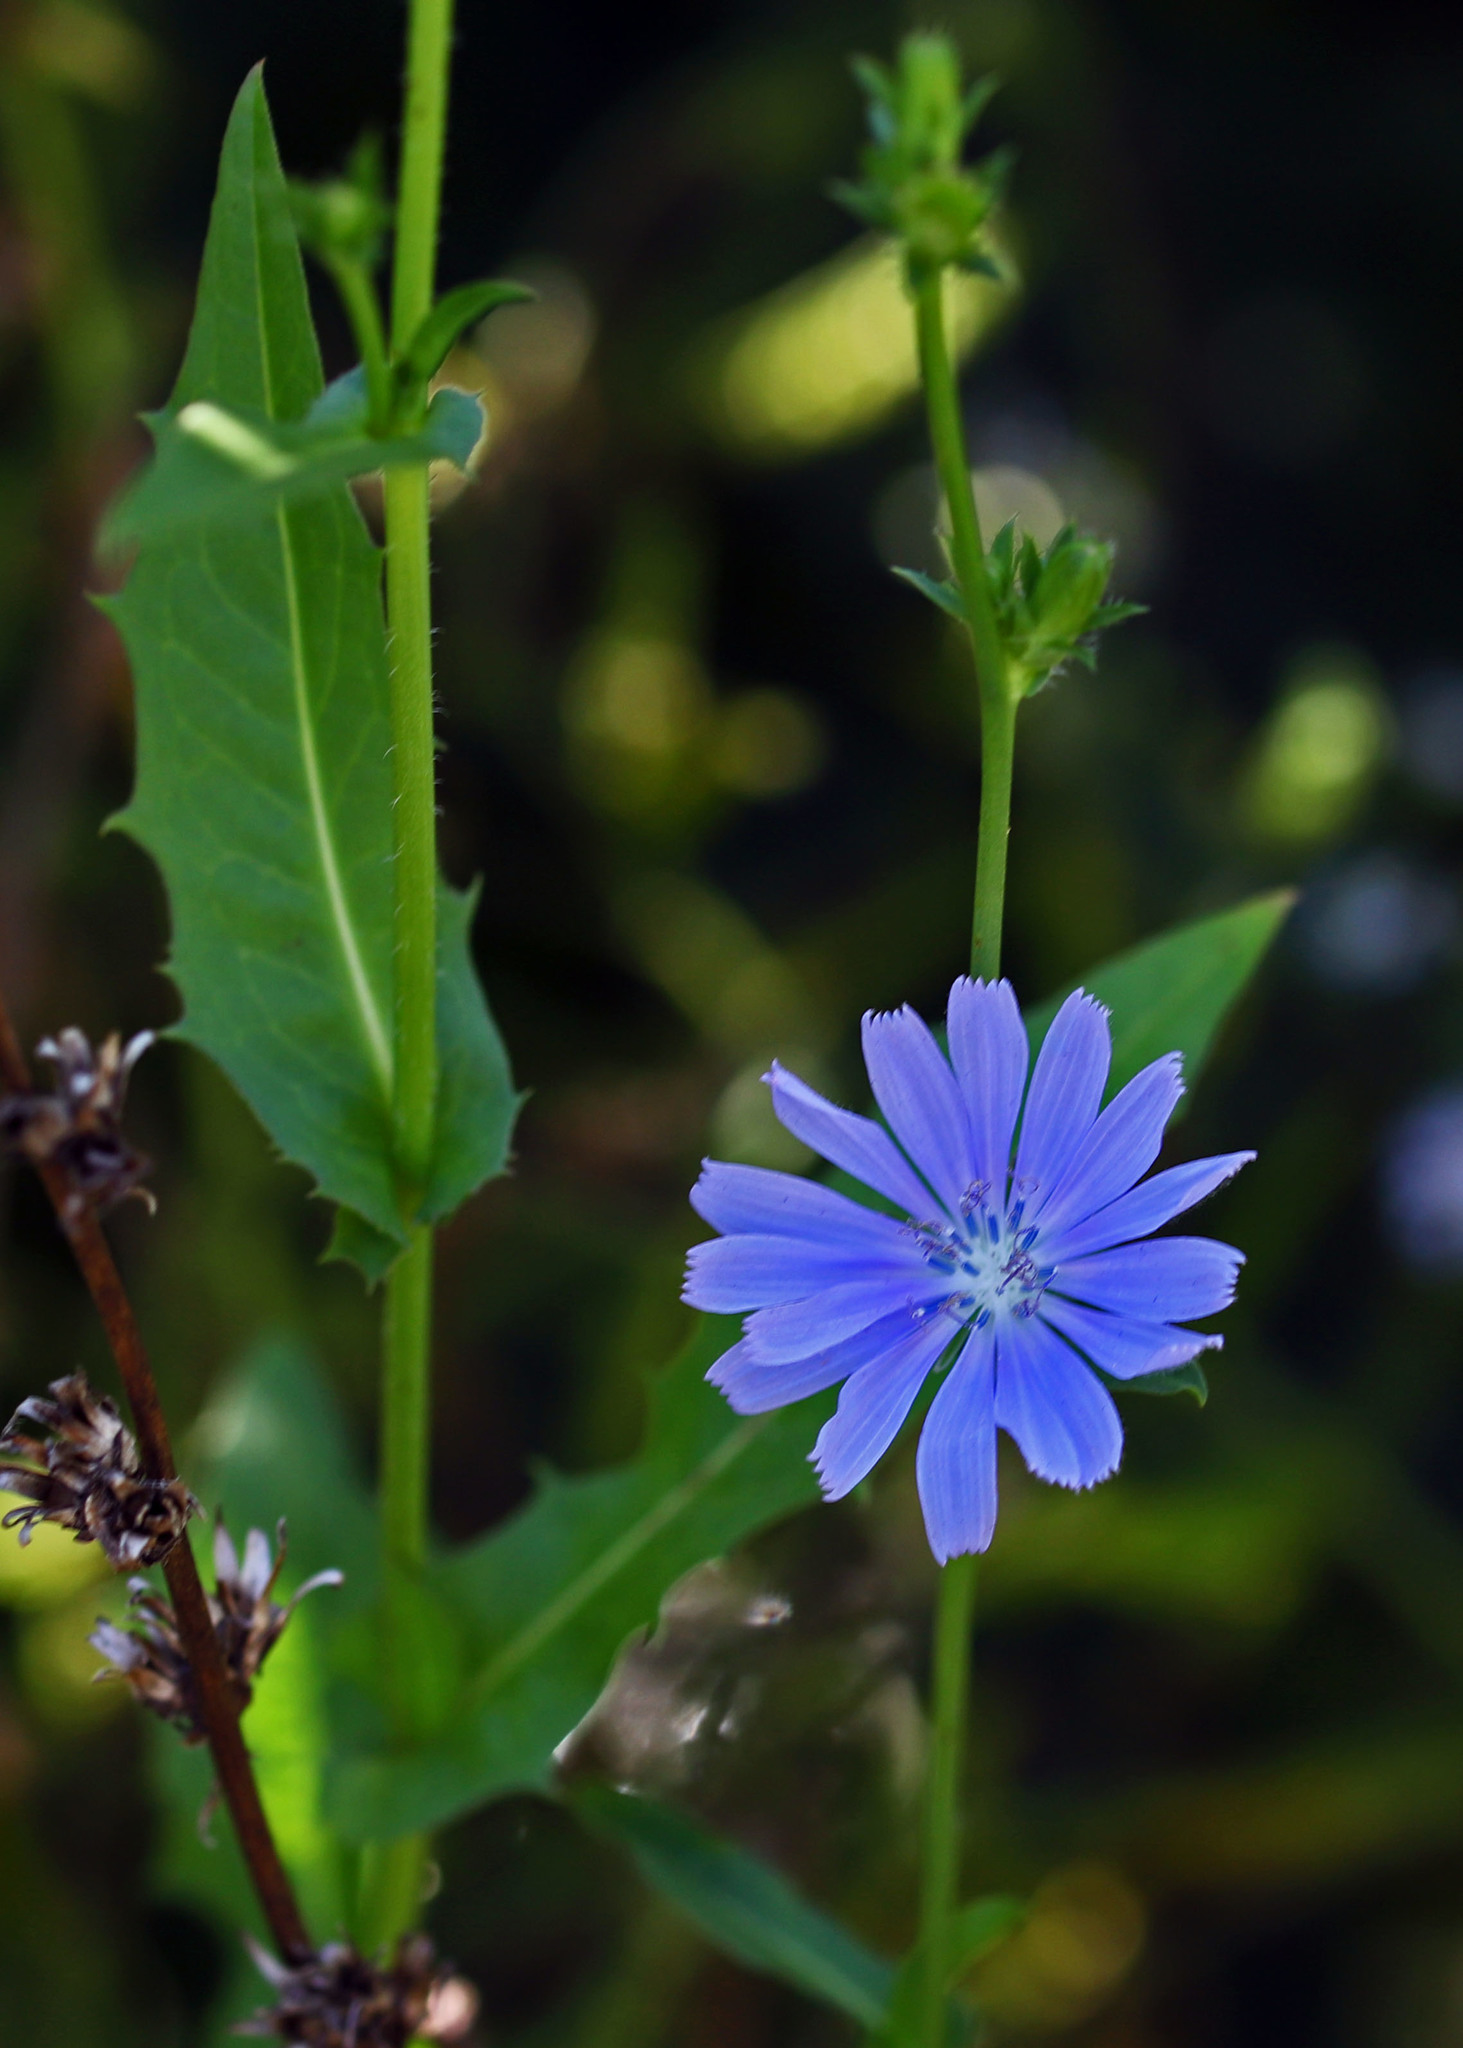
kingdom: Plantae
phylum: Tracheophyta
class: Magnoliopsida
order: Asterales
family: Asteraceae
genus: Cichorium
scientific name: Cichorium intybus
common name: Chicory
